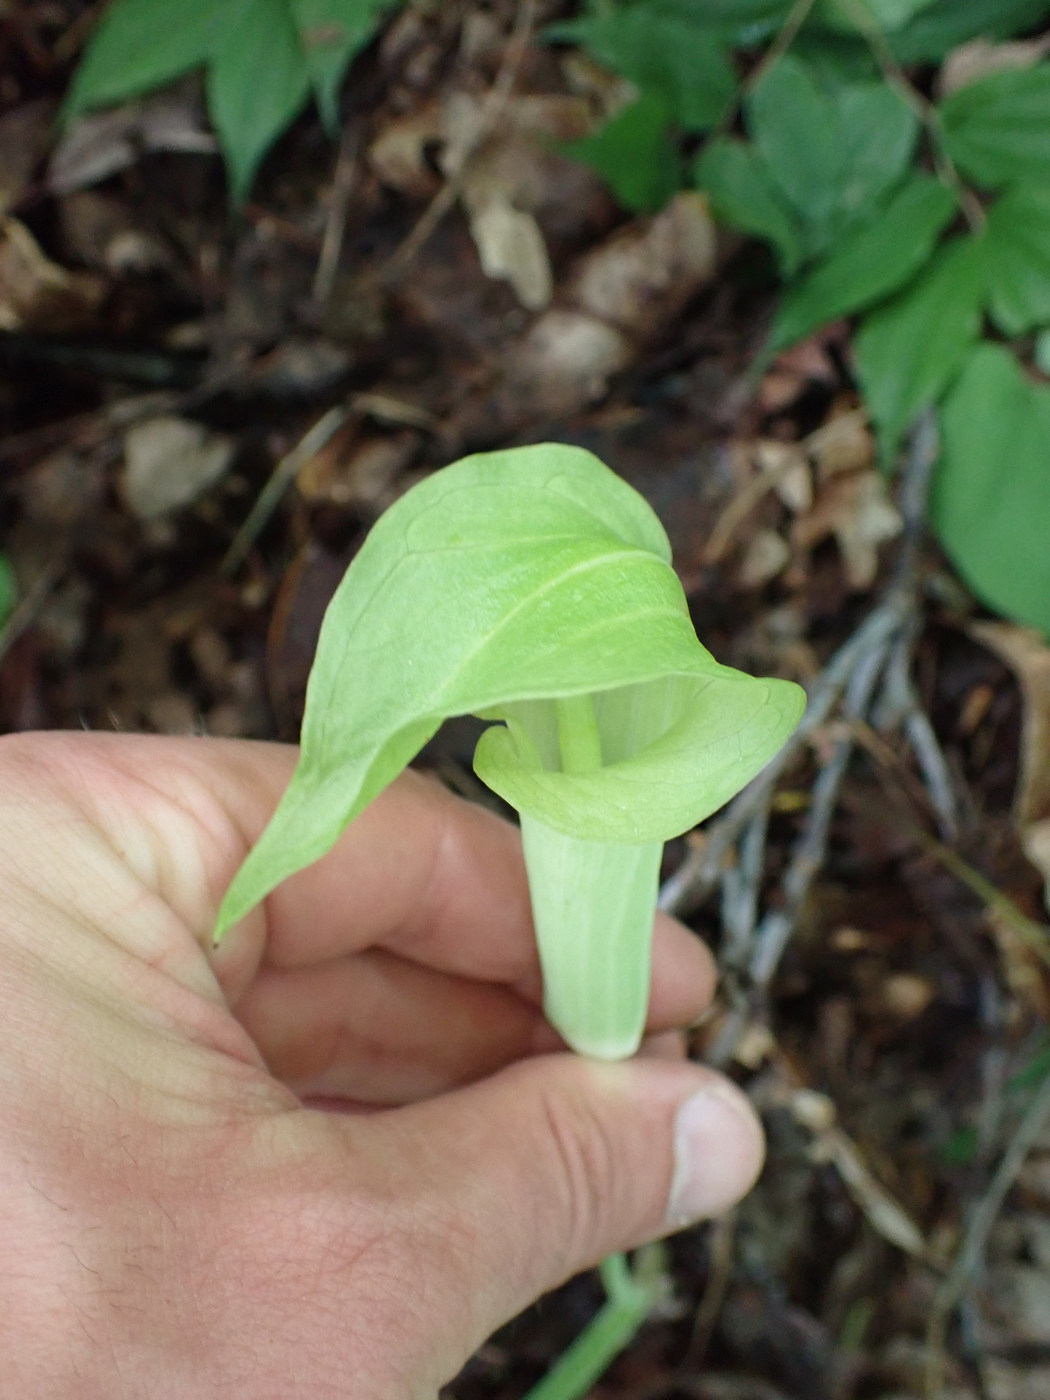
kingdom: Plantae
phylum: Tracheophyta
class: Liliopsida
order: Alismatales
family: Araceae
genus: Arisaema
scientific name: Arisaema triphyllum
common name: Jack-in-the-pulpit
